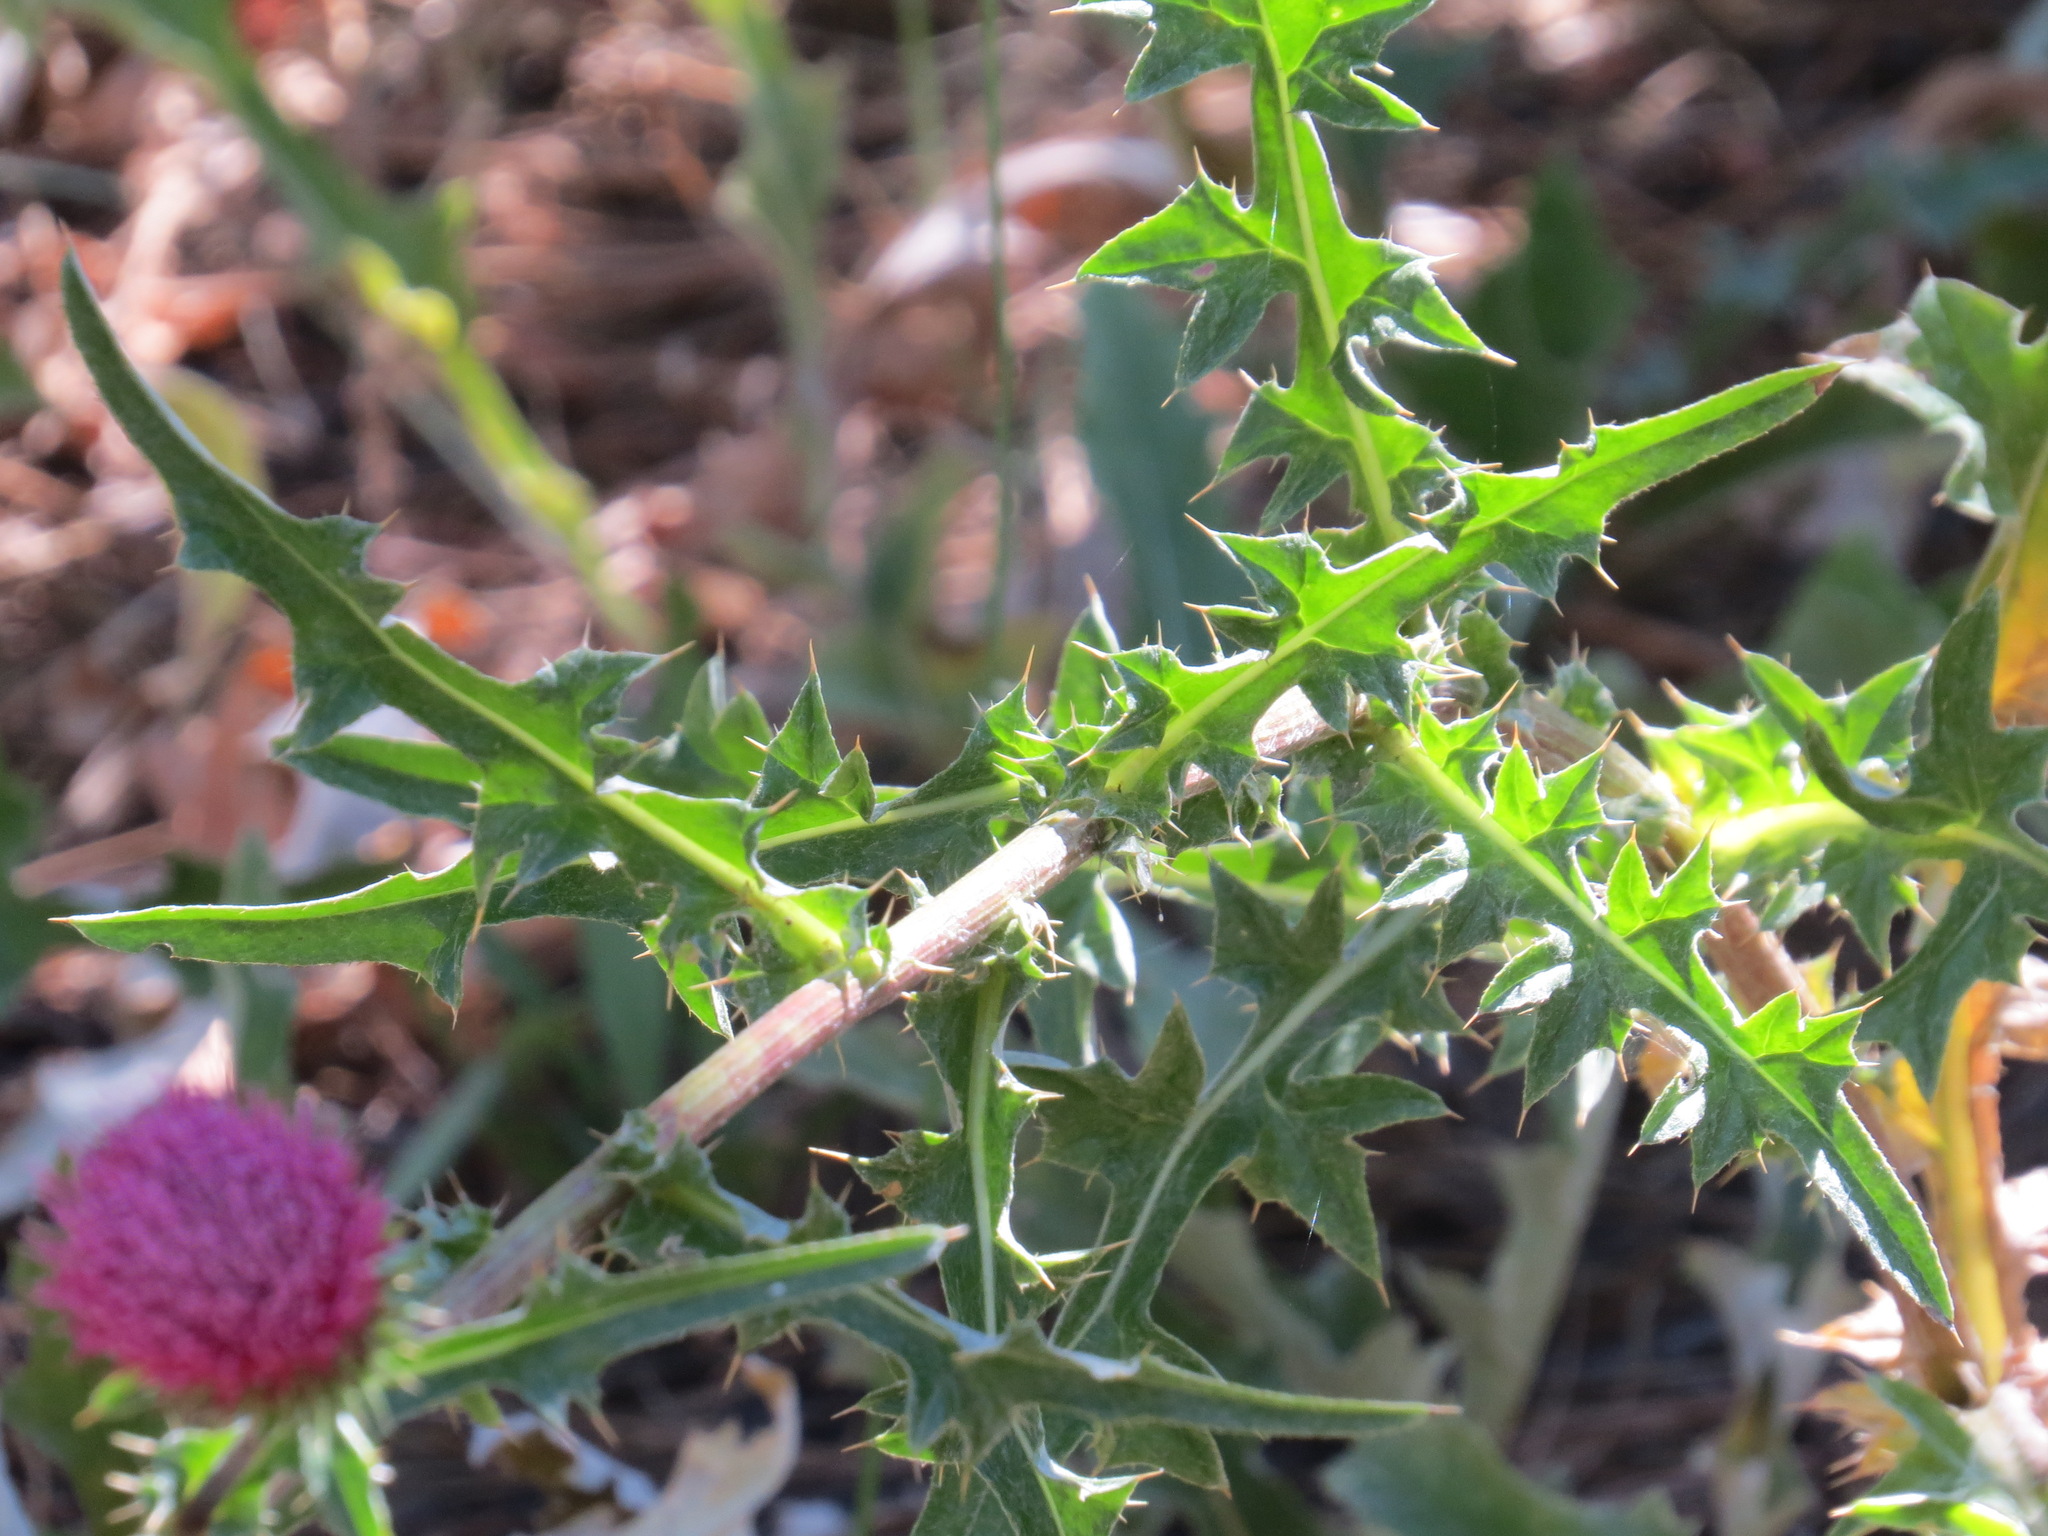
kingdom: Plantae
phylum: Tracheophyta
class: Magnoliopsida
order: Asterales
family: Asteraceae
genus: Cirsium
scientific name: Cirsium andersonii
